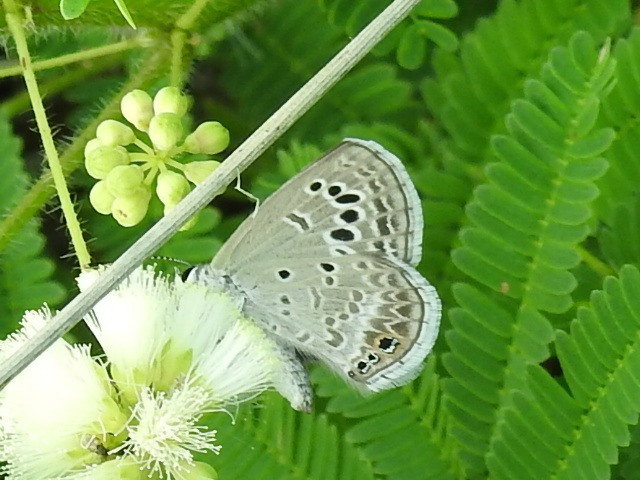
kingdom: Animalia
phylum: Arthropoda
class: Insecta
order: Lepidoptera
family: Lycaenidae
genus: Echinargus
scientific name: Echinargus isola
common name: Reakirt's blue
